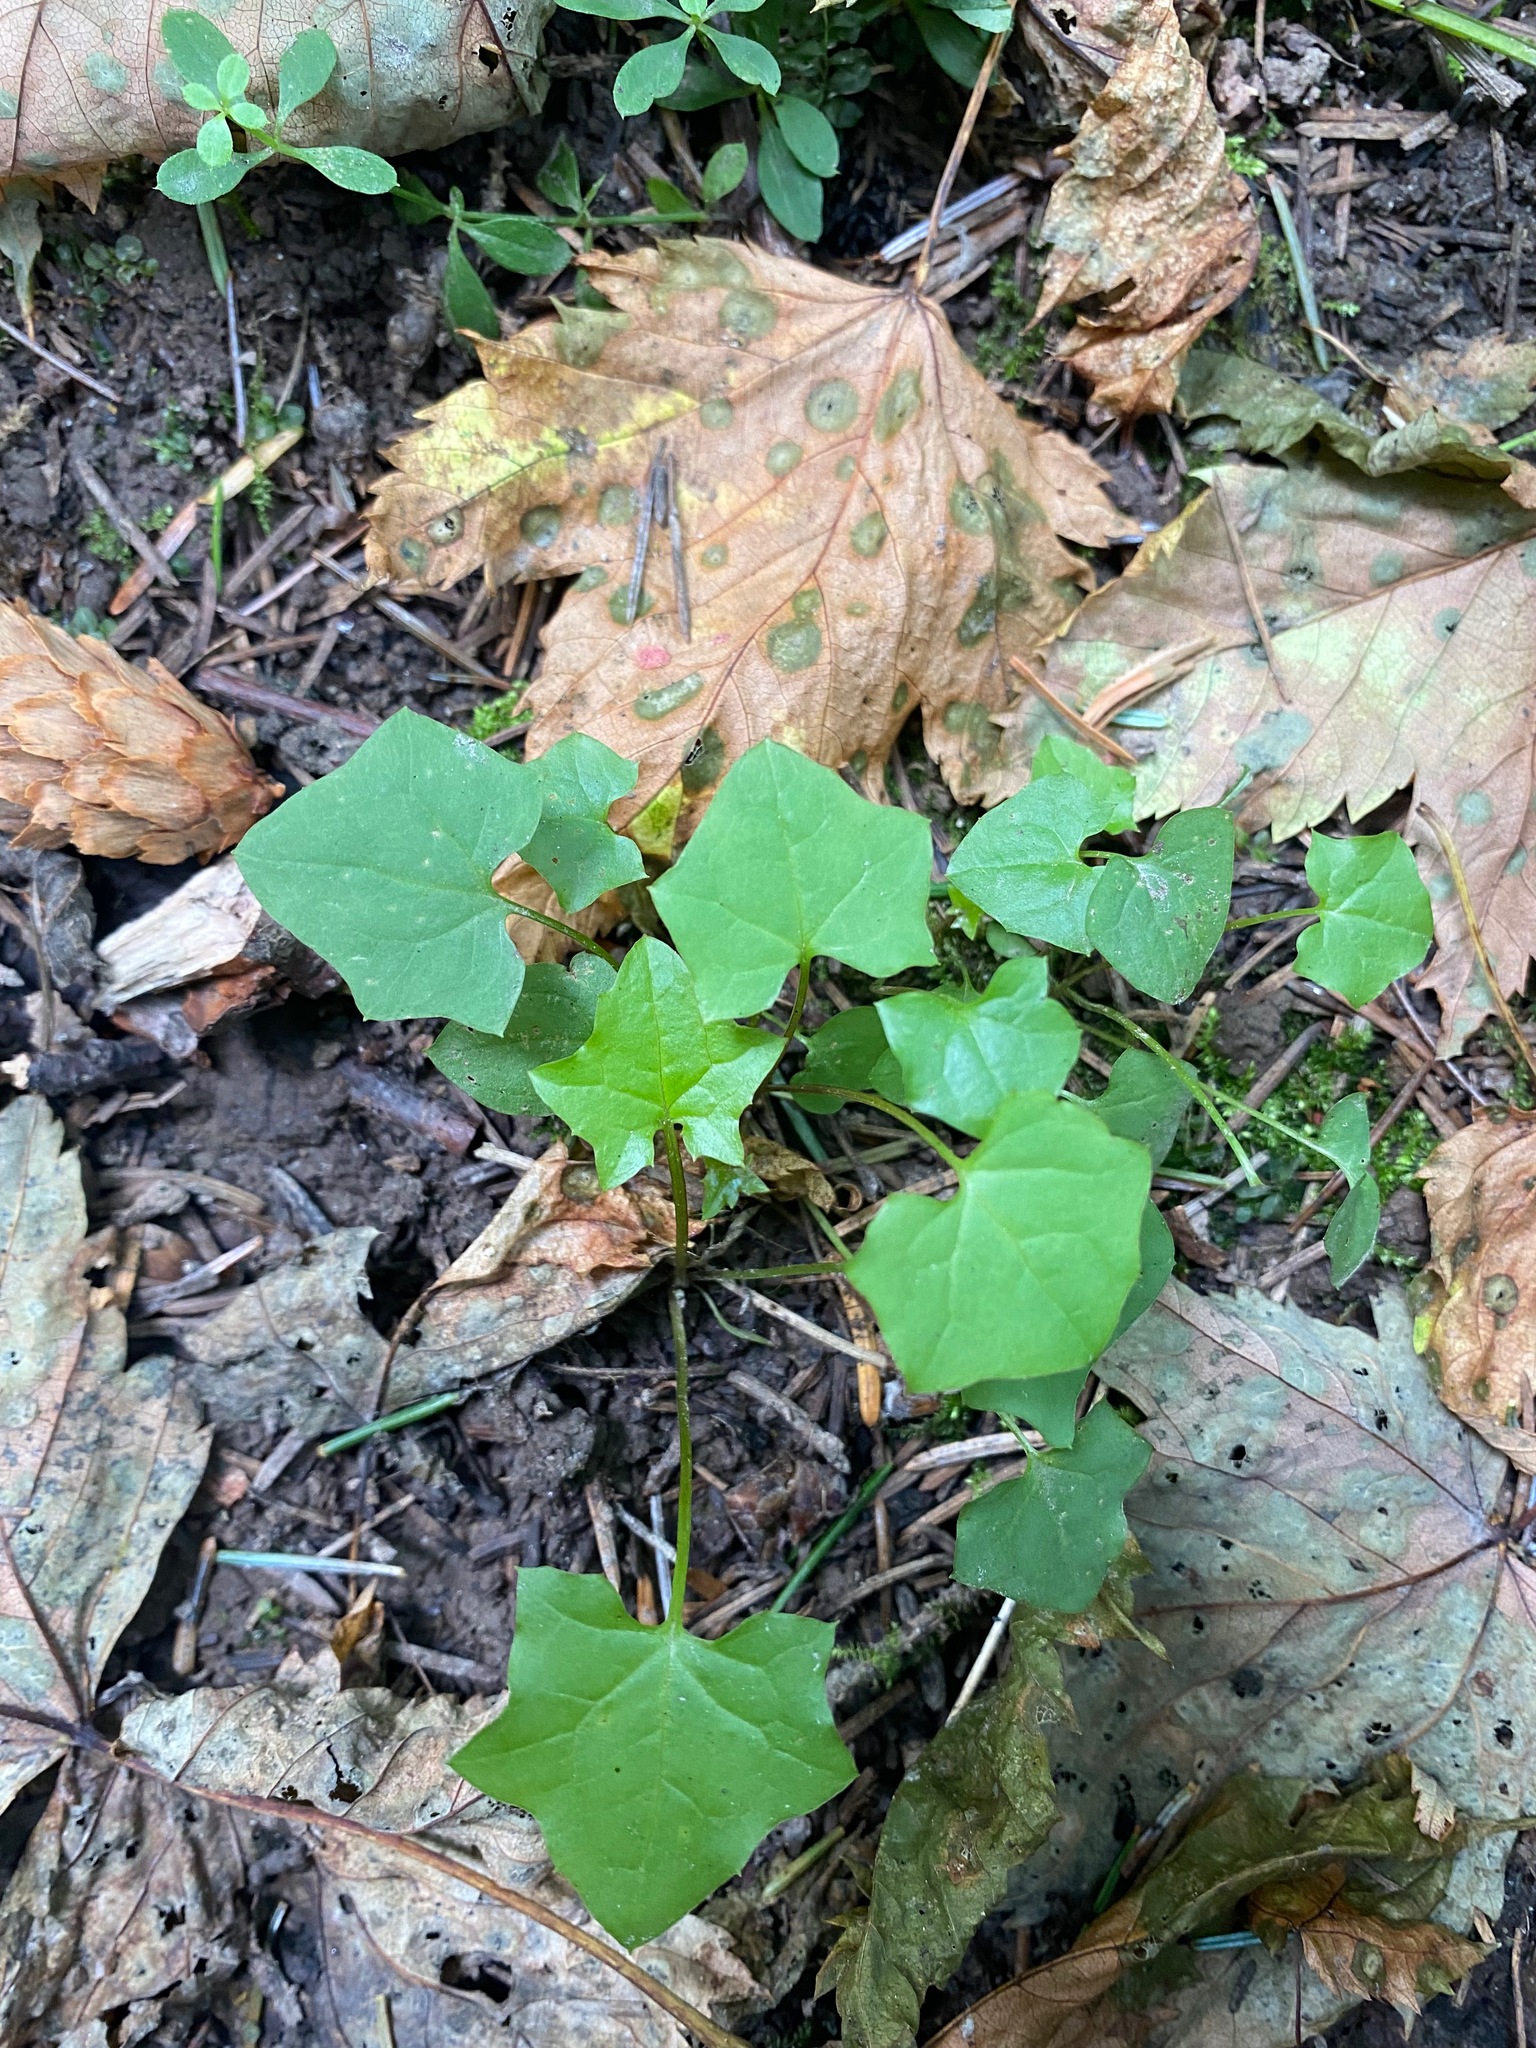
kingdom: Plantae
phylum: Tracheophyta
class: Magnoliopsida
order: Asterales
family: Asteraceae
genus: Mycelis
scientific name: Mycelis muralis
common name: Wall lettuce
